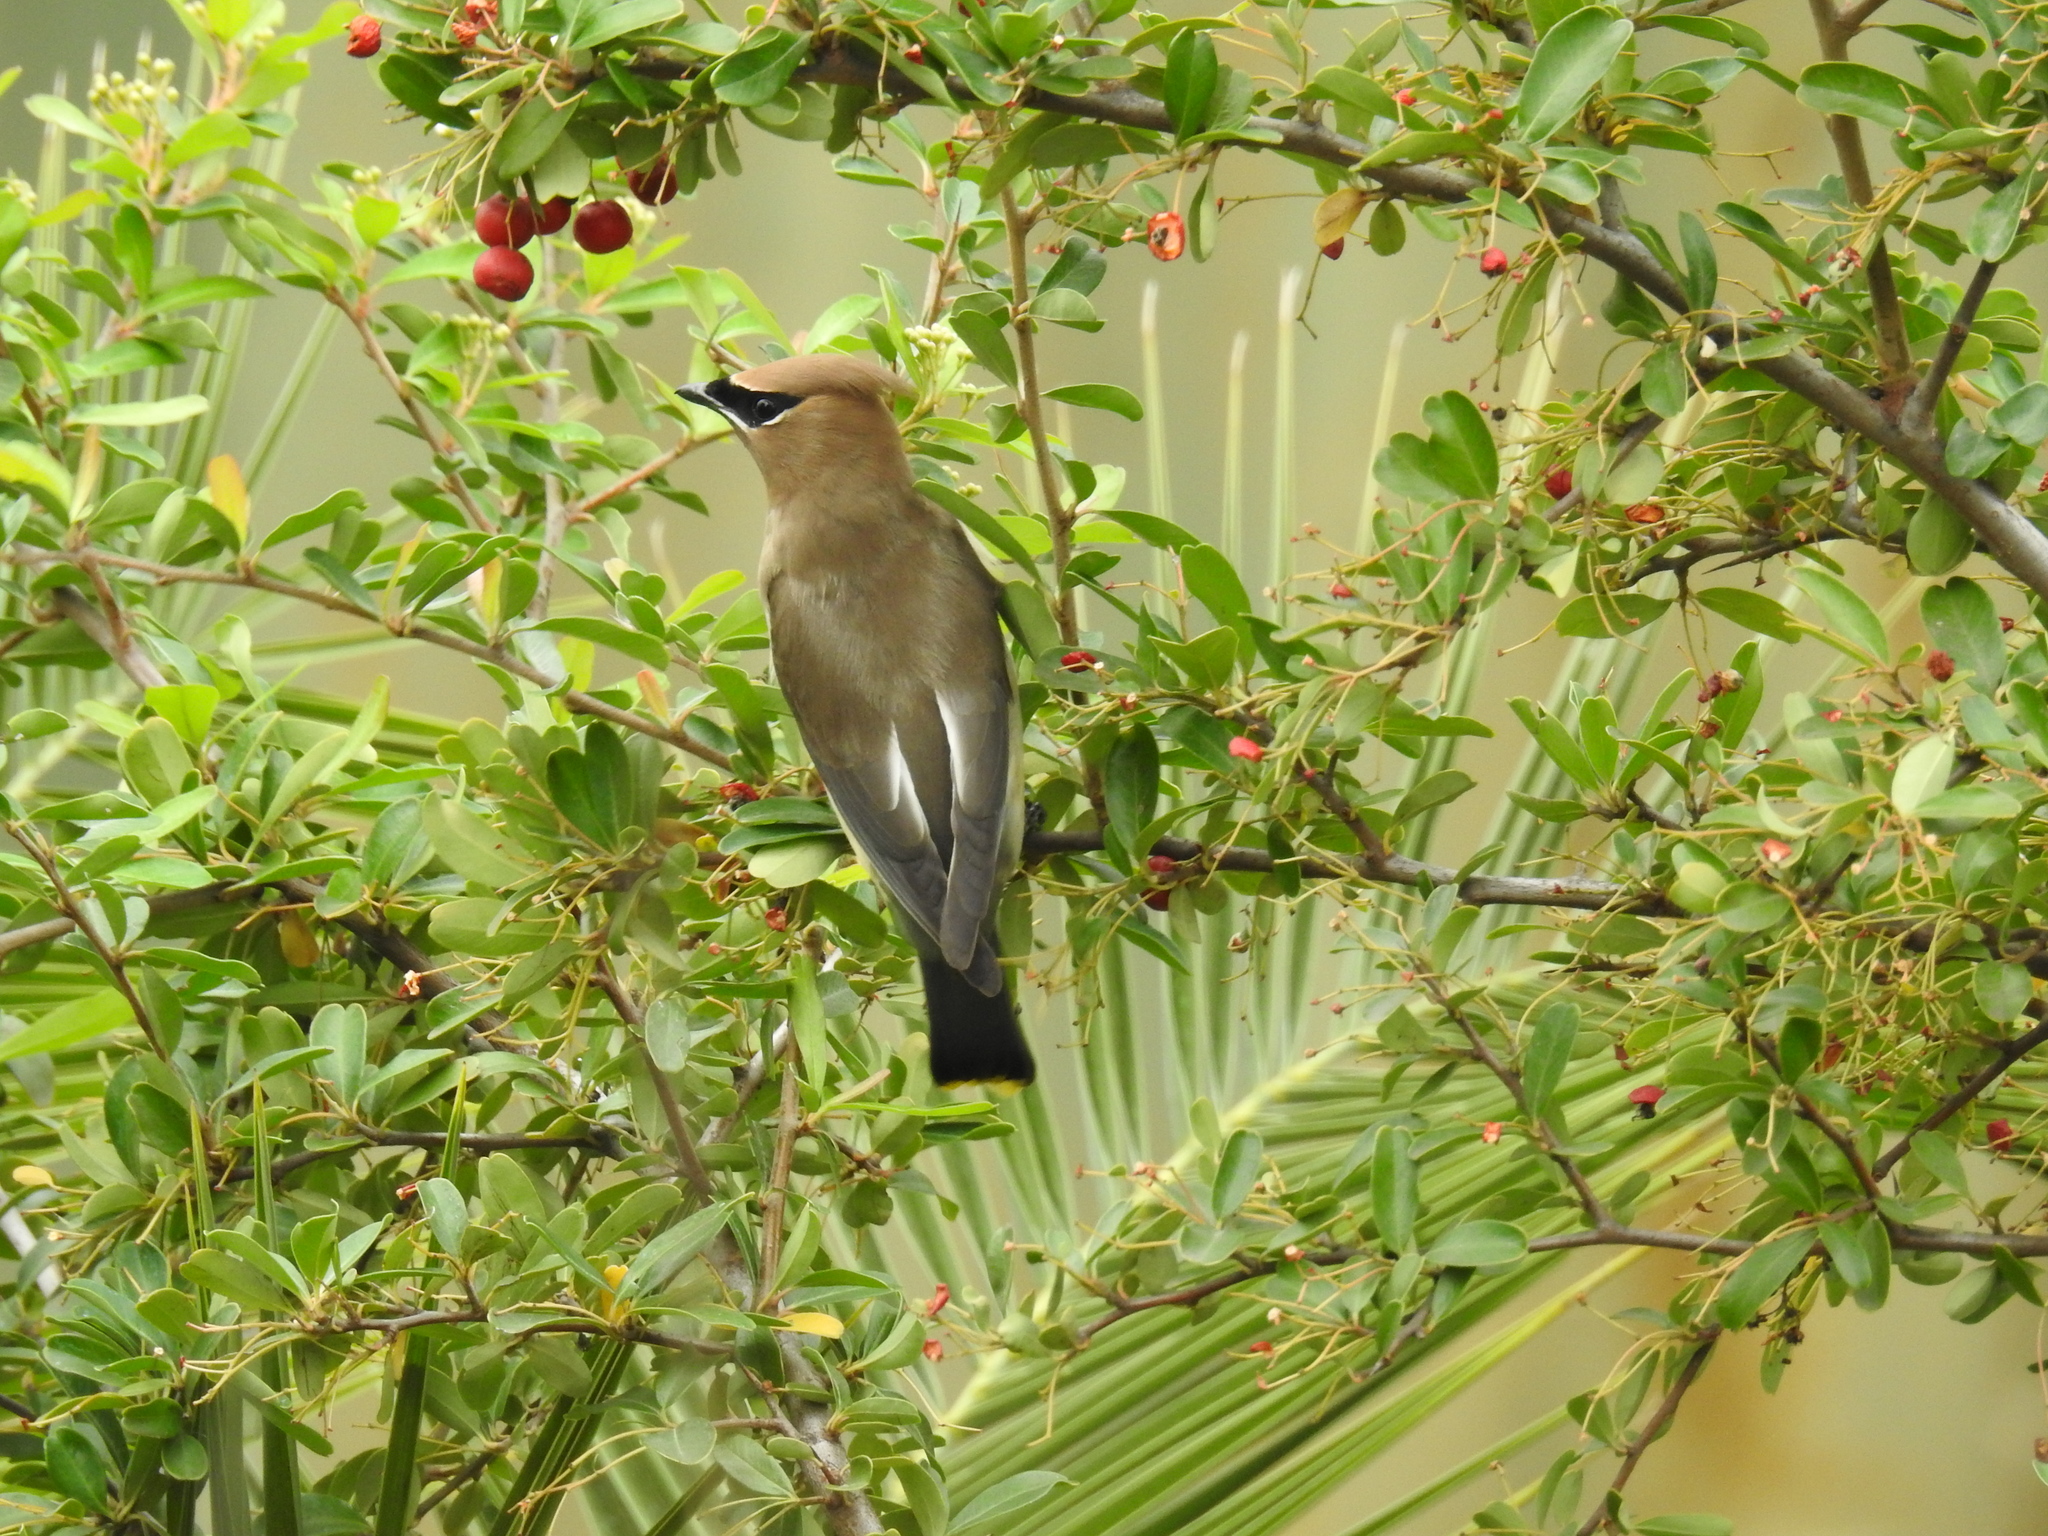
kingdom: Animalia
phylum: Chordata
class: Aves
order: Passeriformes
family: Bombycillidae
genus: Bombycilla
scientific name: Bombycilla cedrorum
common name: Cedar waxwing
